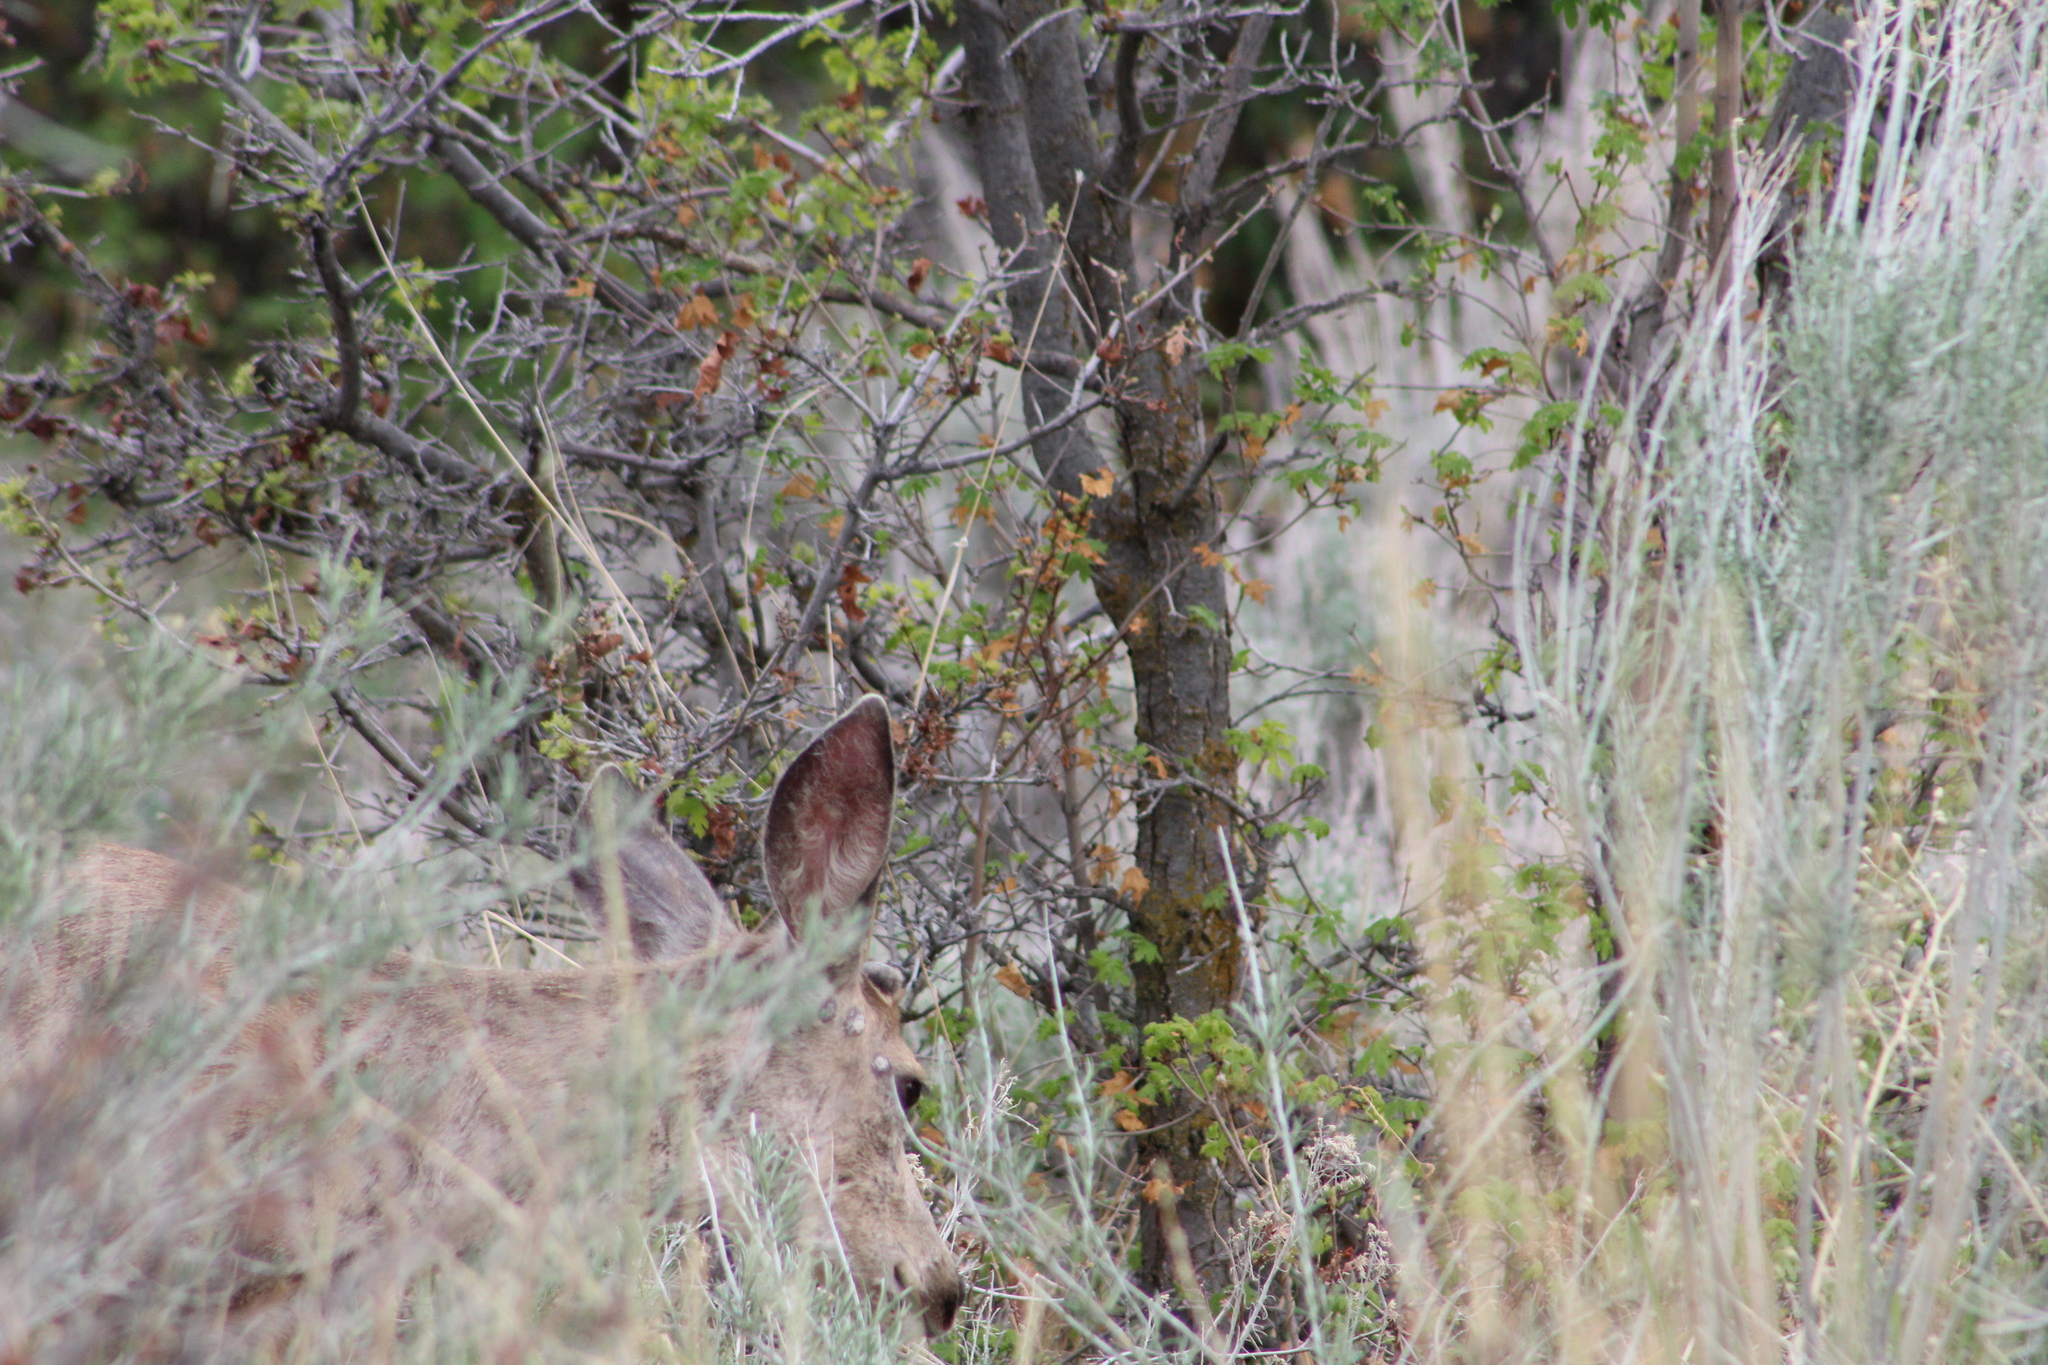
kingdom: Animalia
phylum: Chordata
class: Mammalia
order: Artiodactyla
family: Cervidae
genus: Odocoileus
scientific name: Odocoileus hemionus
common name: Mule deer
